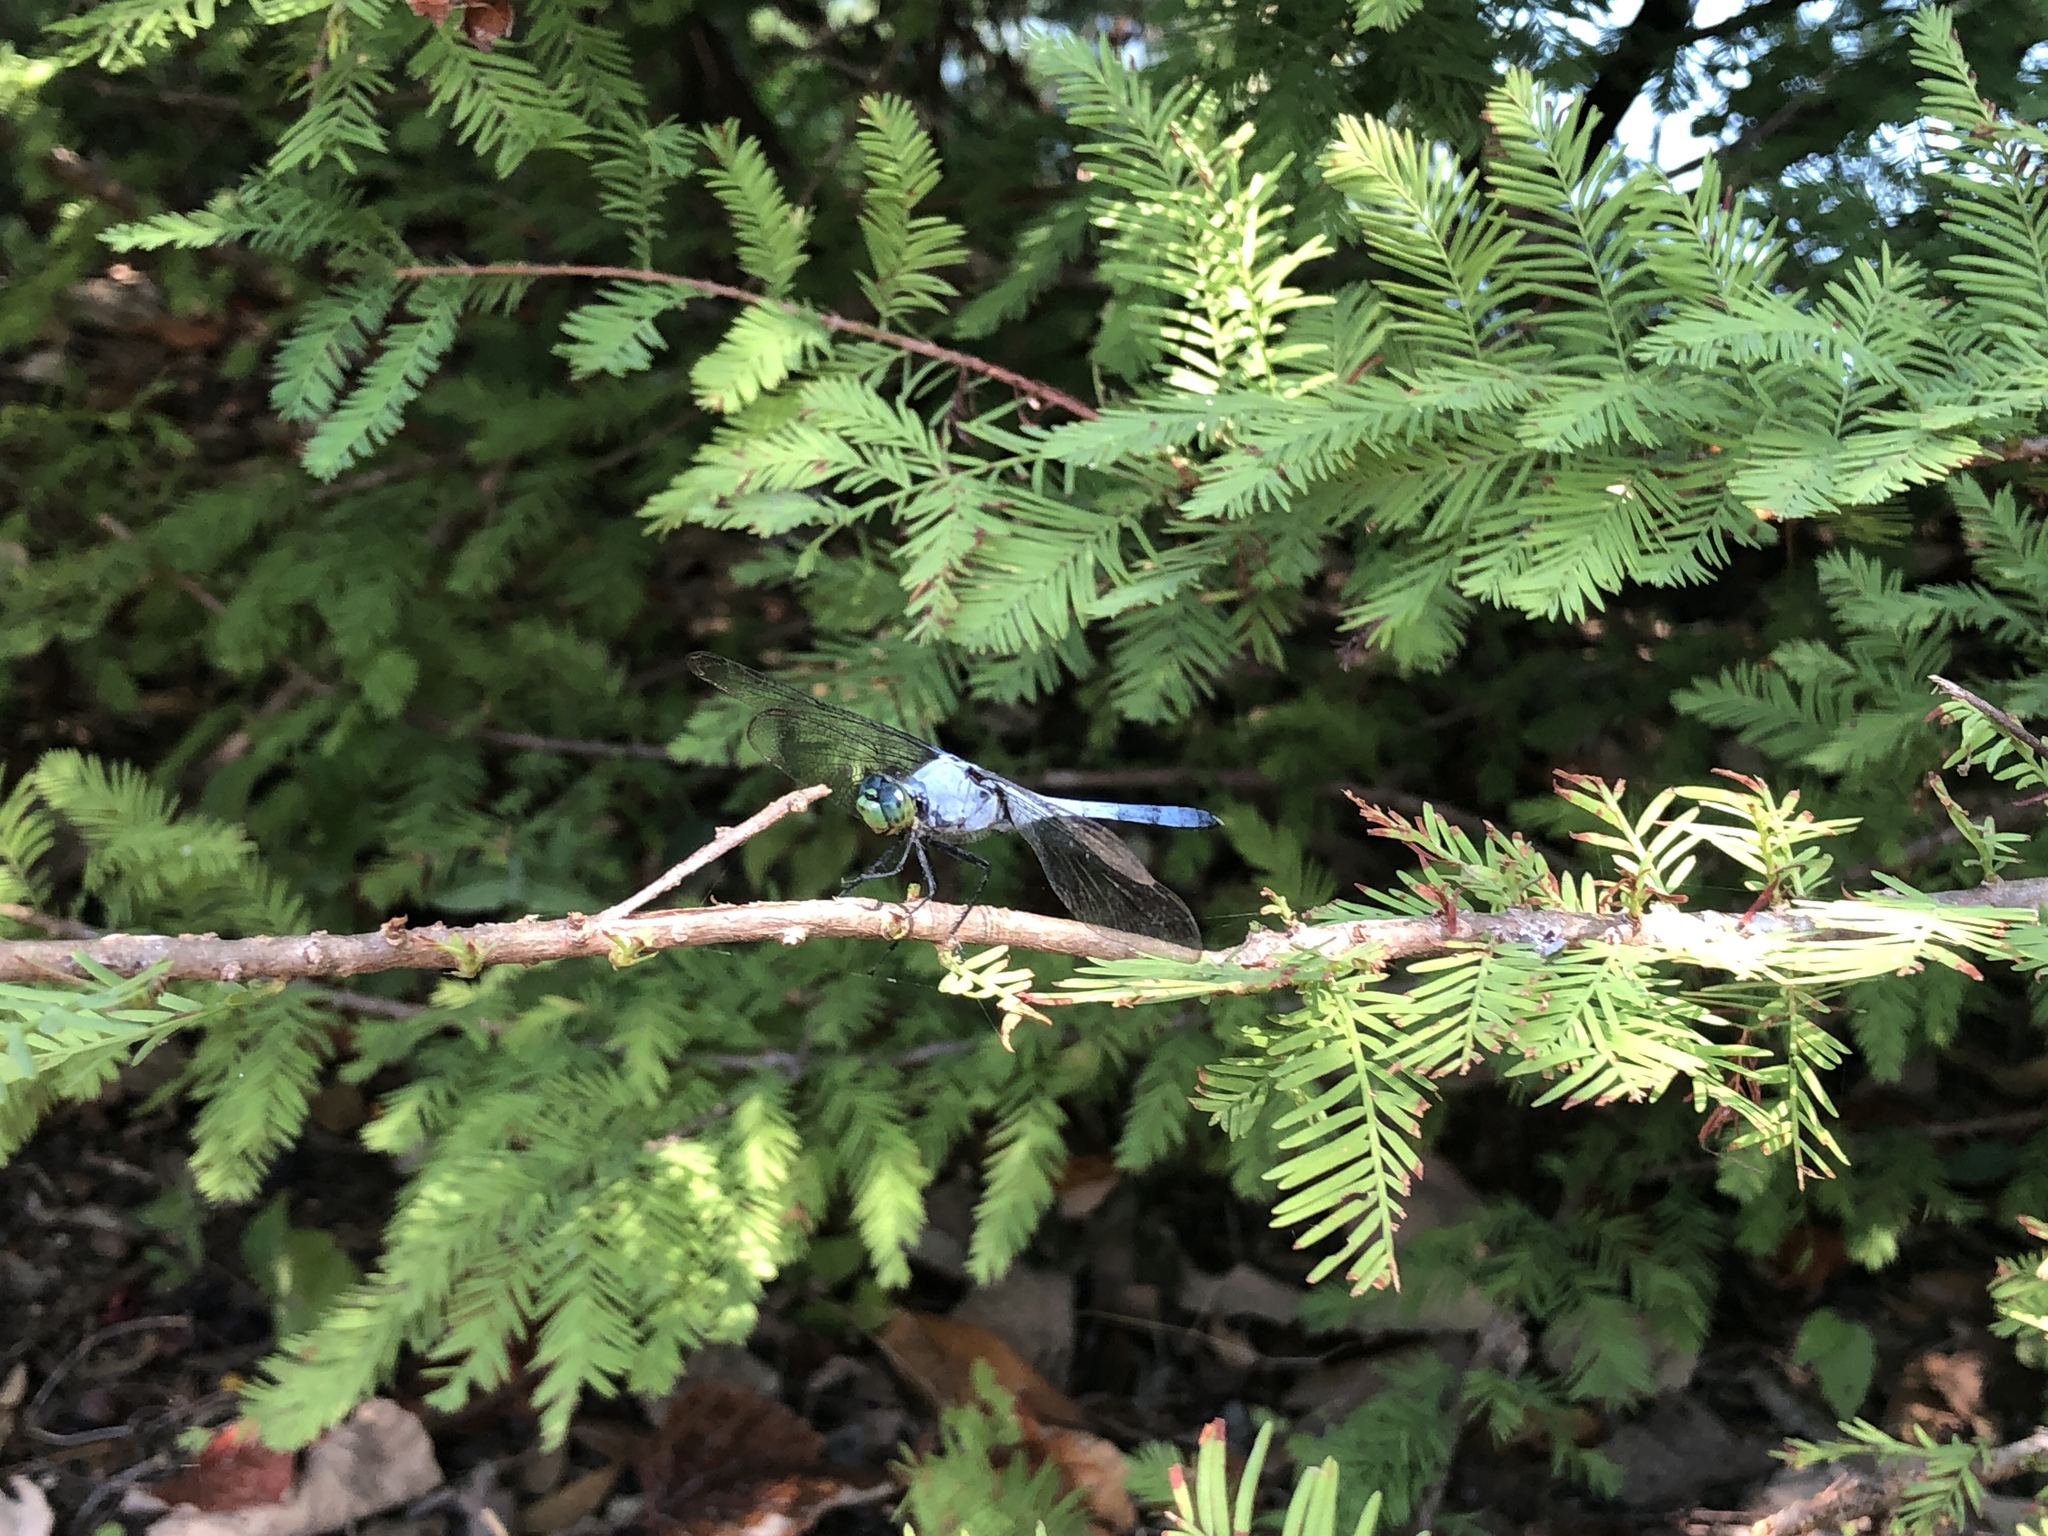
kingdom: Animalia
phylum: Arthropoda
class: Insecta
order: Odonata
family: Libellulidae
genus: Erythemis
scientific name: Erythemis simplicicollis
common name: Eastern pondhawk
